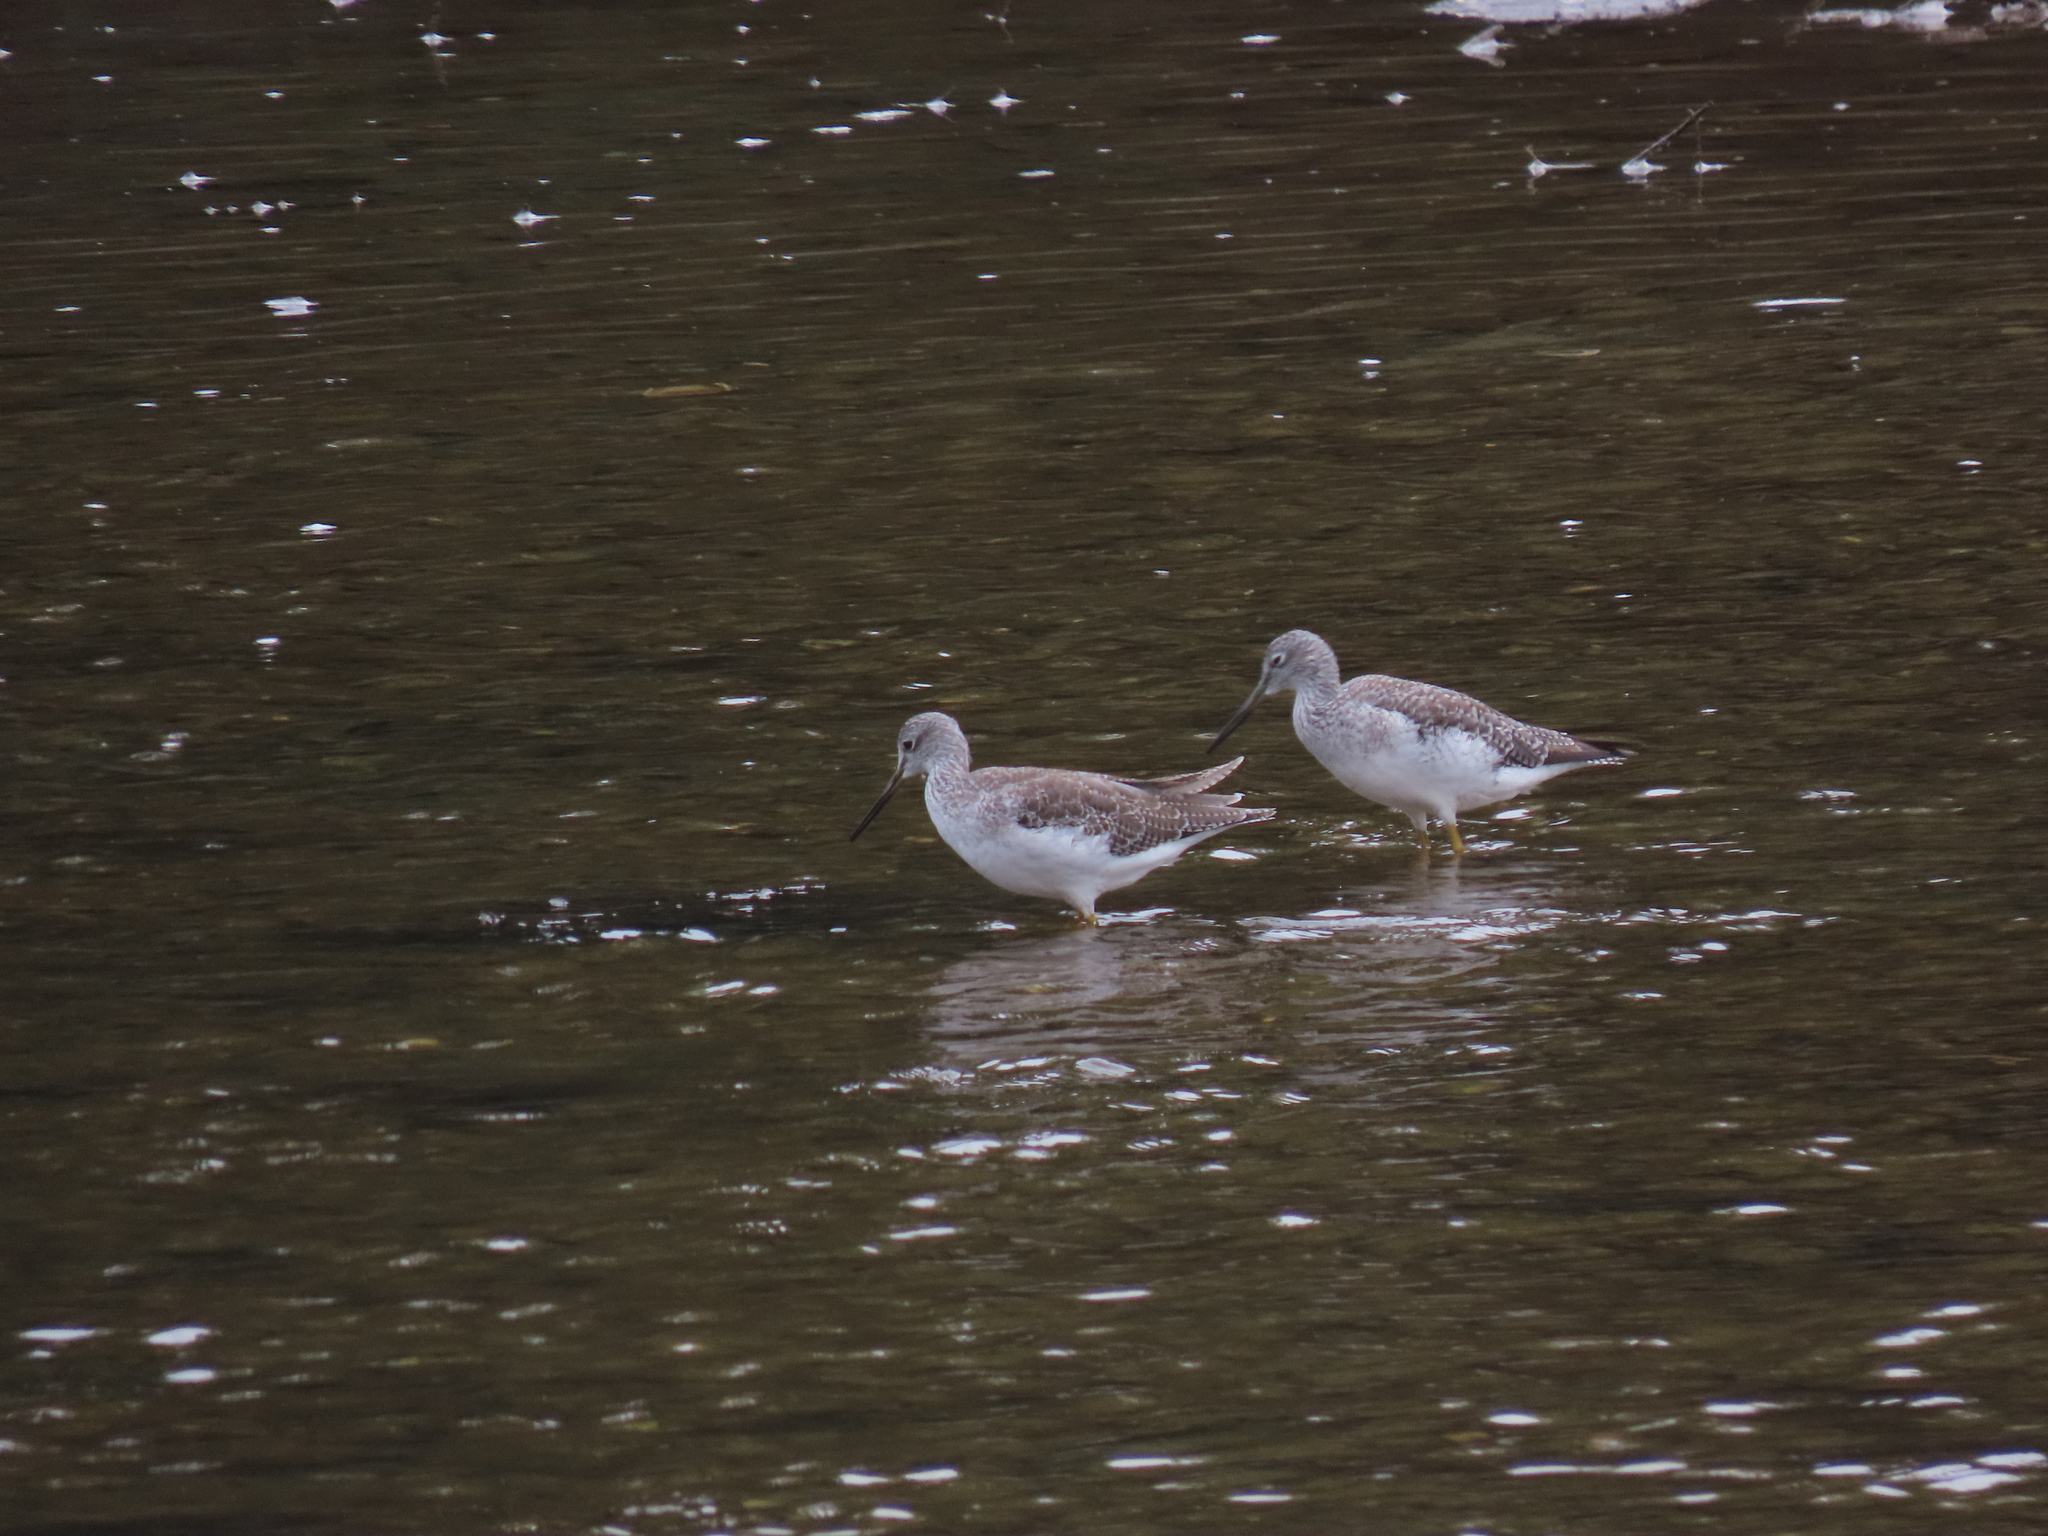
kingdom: Animalia
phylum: Chordata
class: Aves
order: Charadriiformes
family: Scolopacidae
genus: Tringa
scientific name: Tringa melanoleuca
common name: Greater yellowlegs
